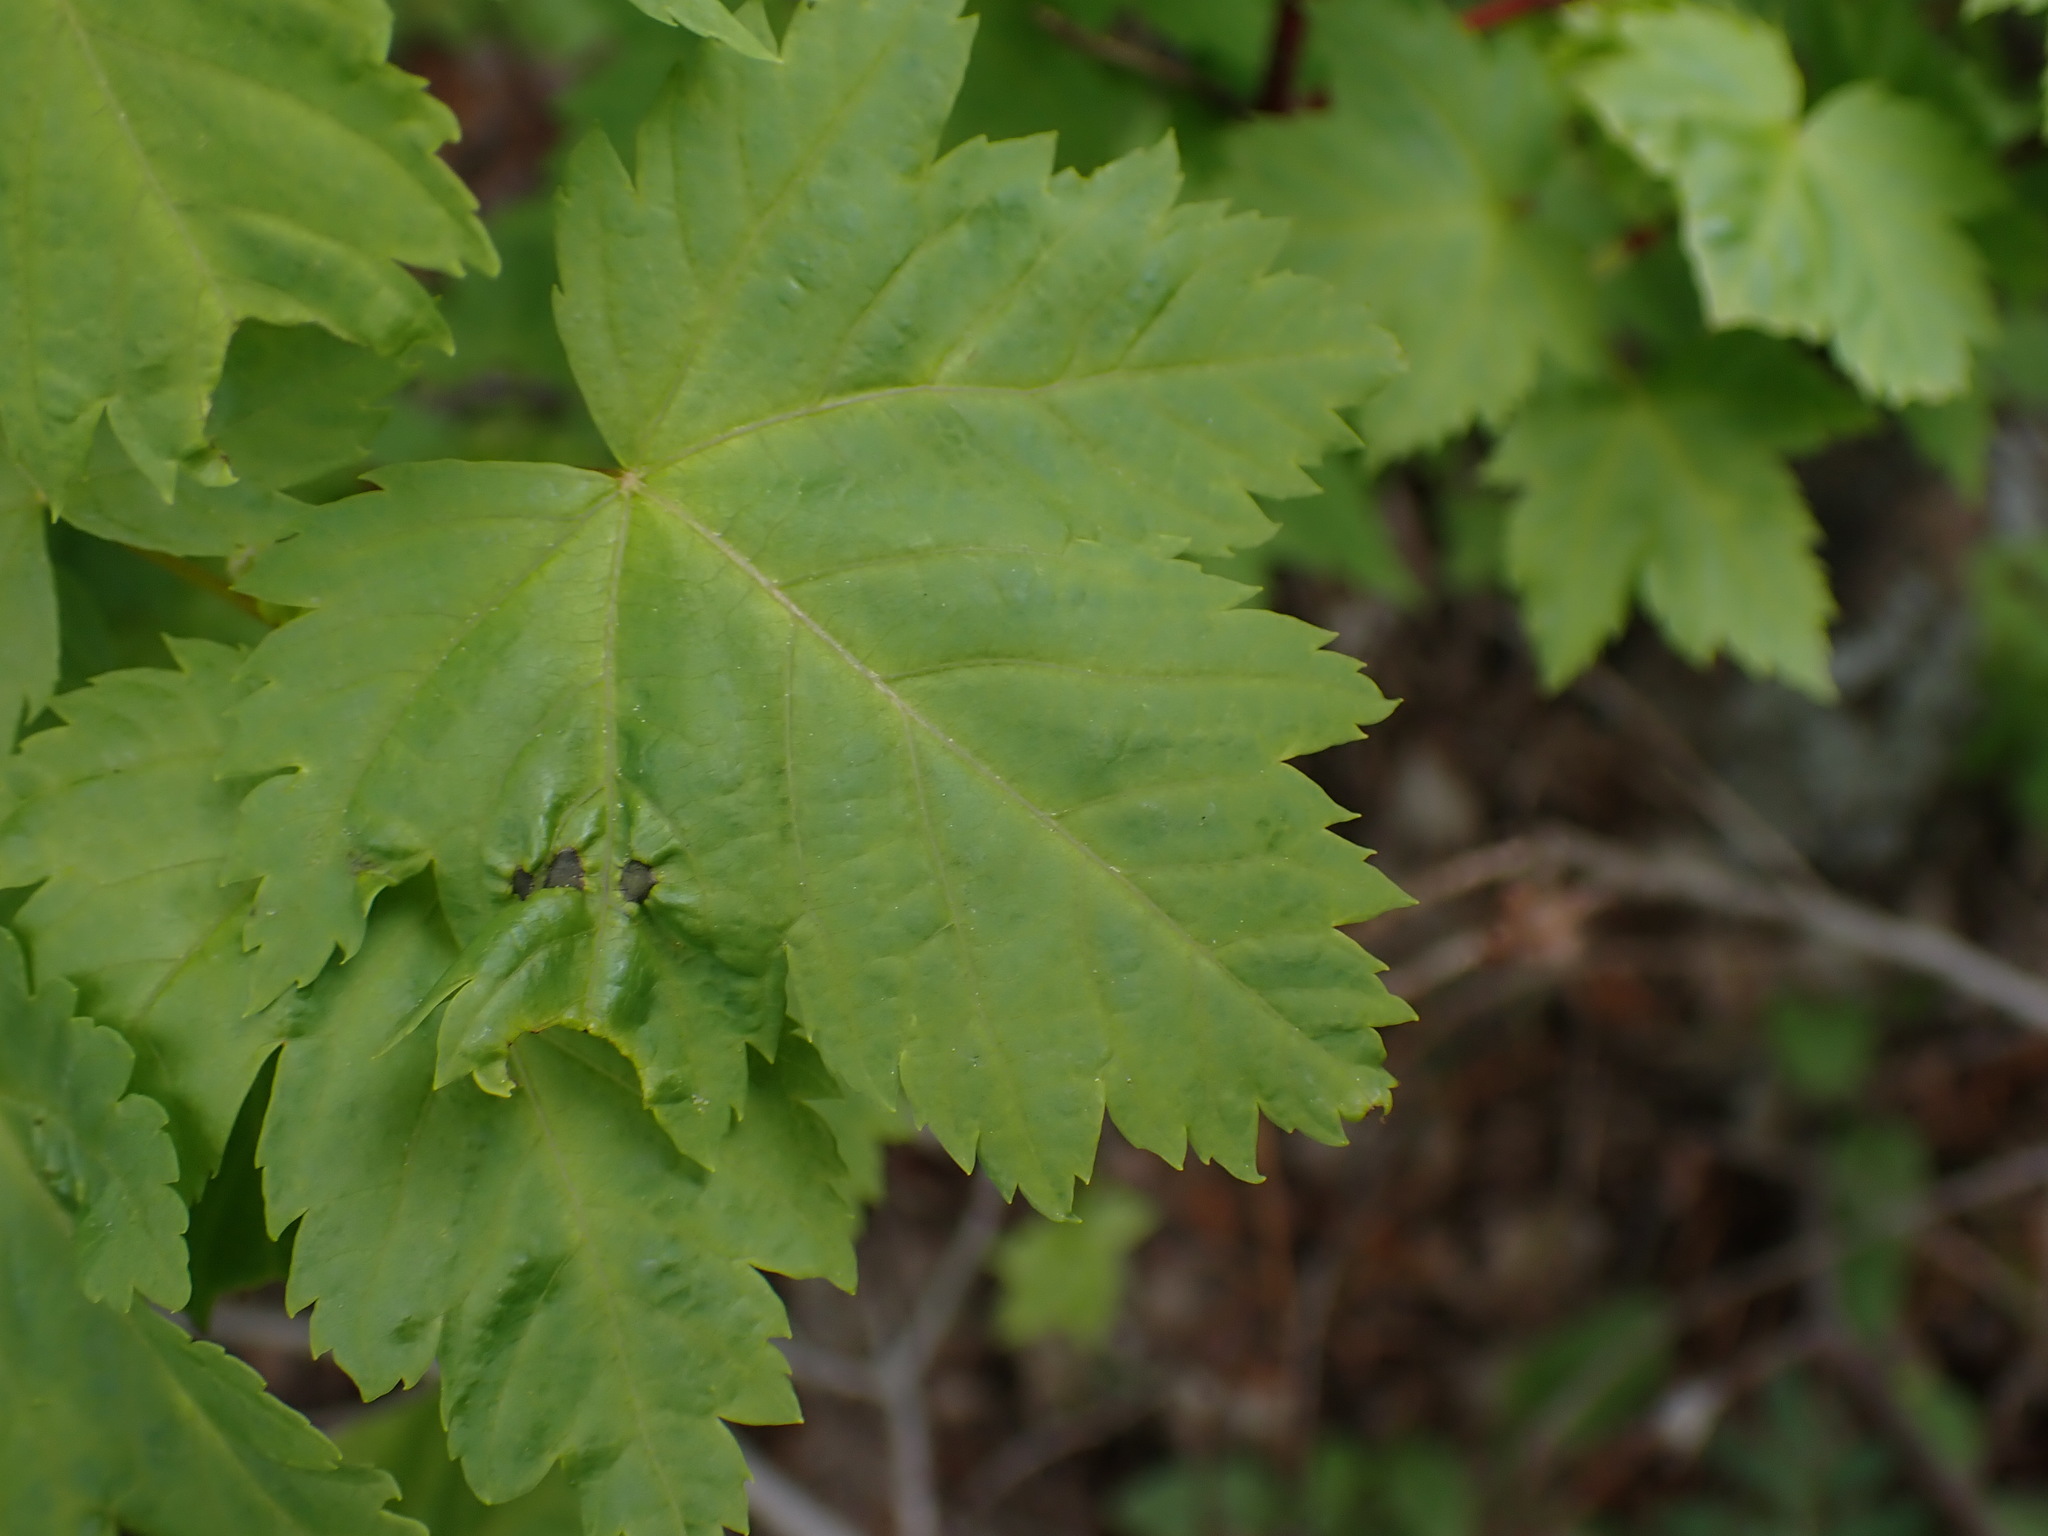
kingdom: Plantae
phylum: Tracheophyta
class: Magnoliopsida
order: Sapindales
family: Sapindaceae
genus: Acer
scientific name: Acer glabrum
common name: Rocky mountain maple
